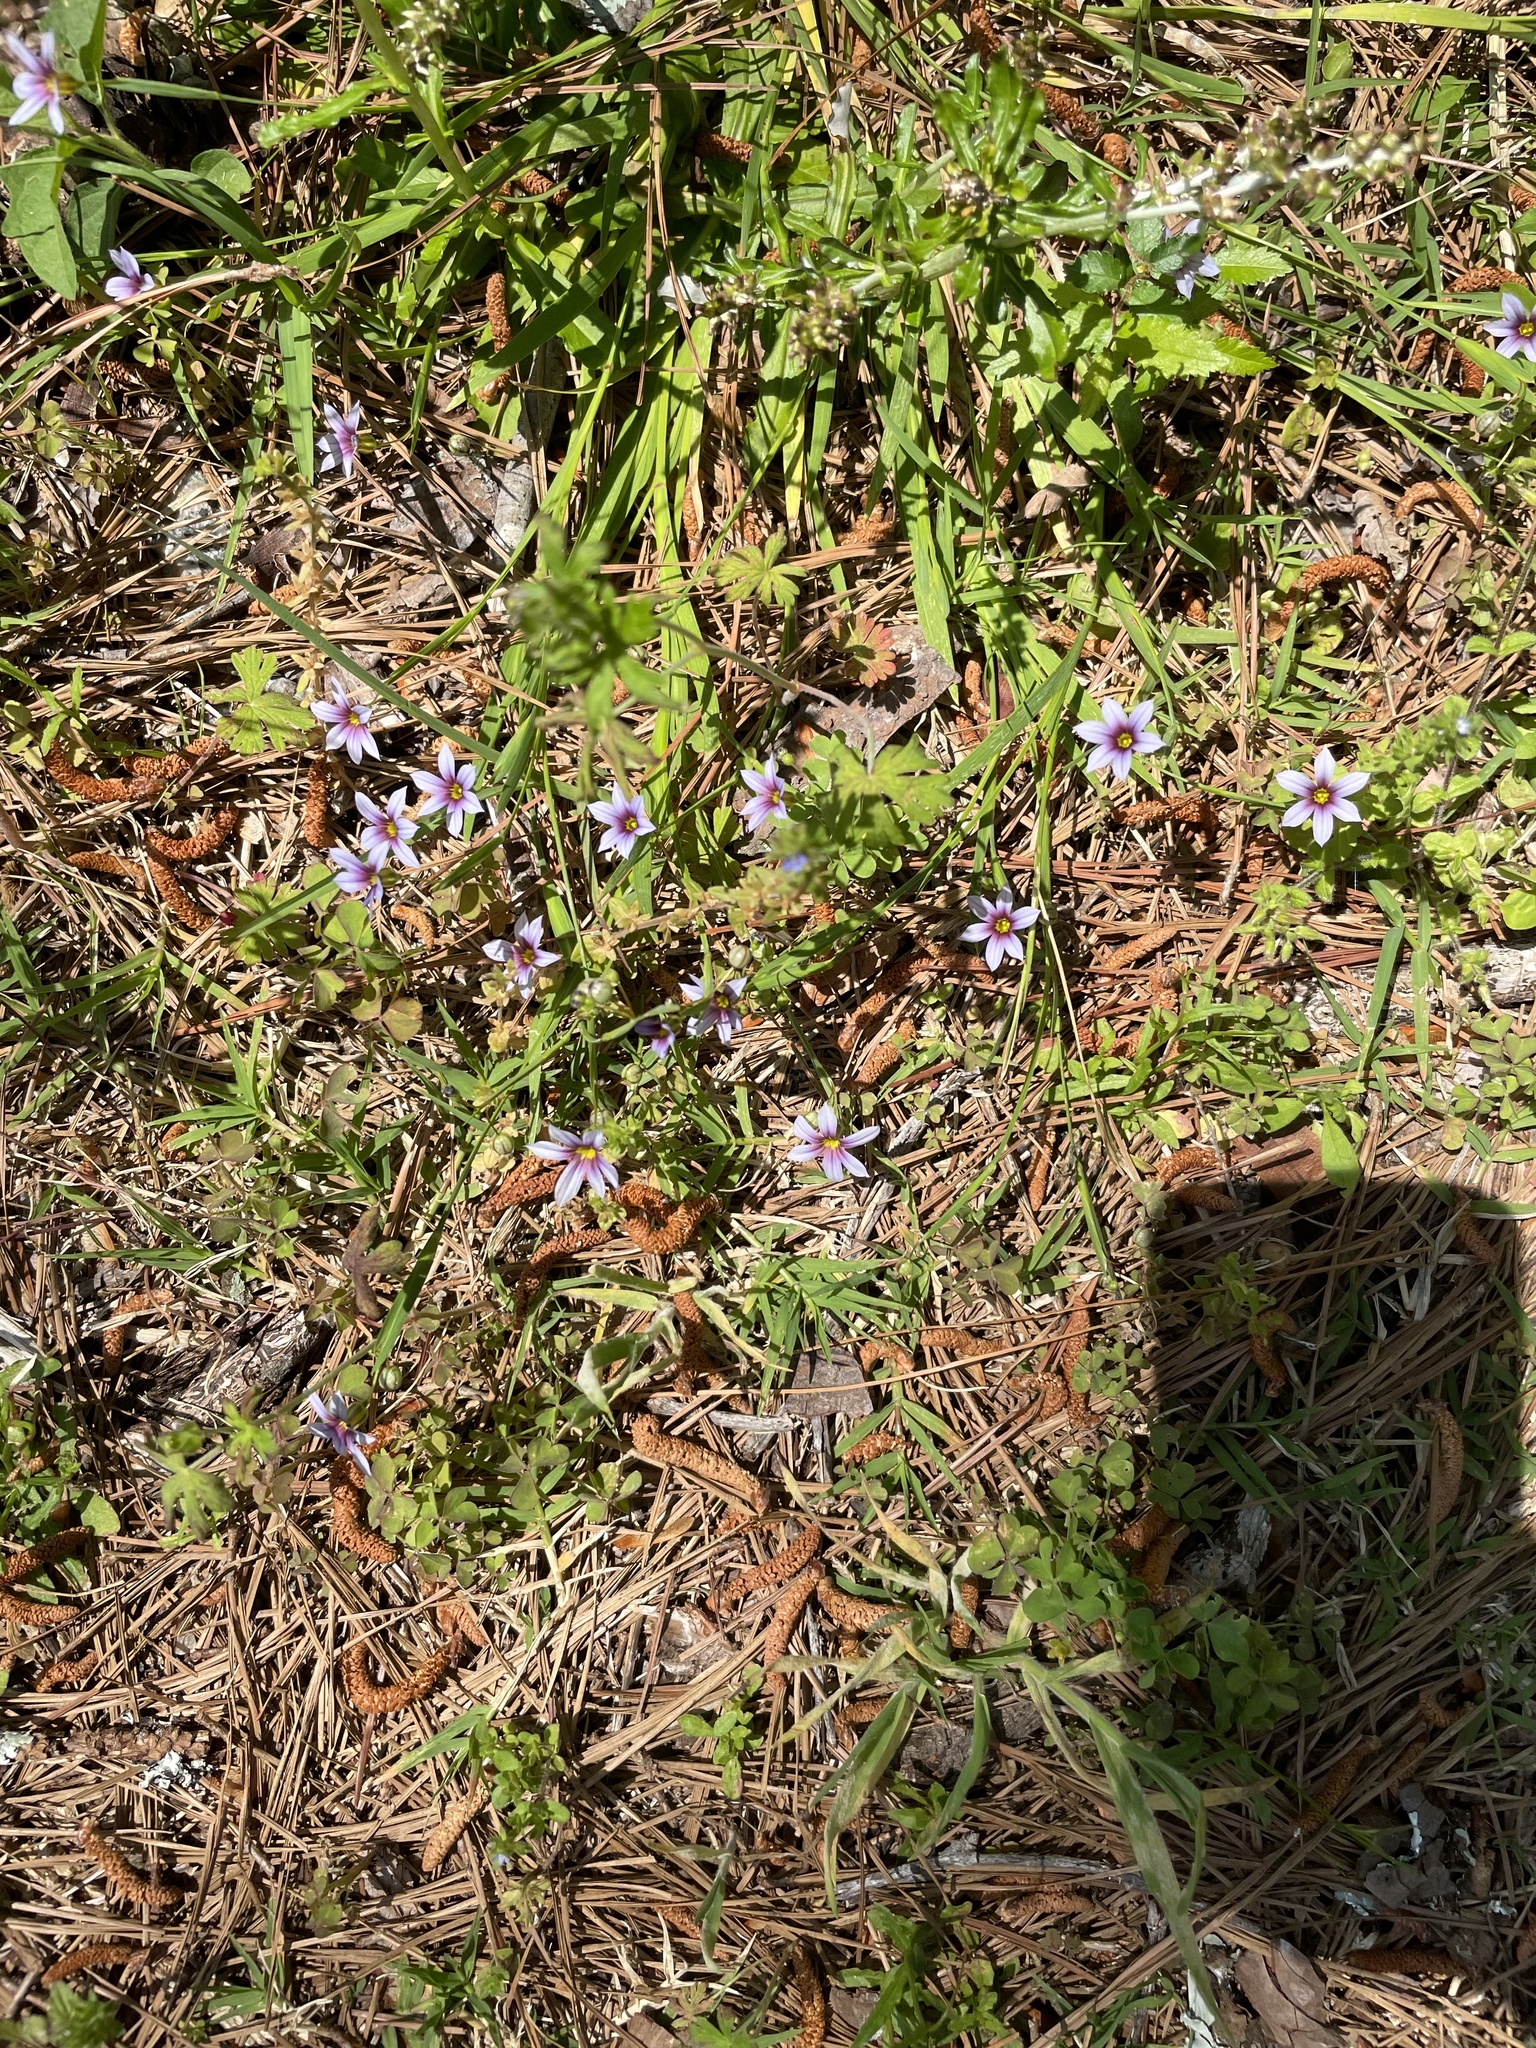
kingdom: Plantae
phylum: Tracheophyta
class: Liliopsida
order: Asparagales
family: Iridaceae
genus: Sisyrinchium
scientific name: Sisyrinchium micranthum
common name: Bermuda pigroot
